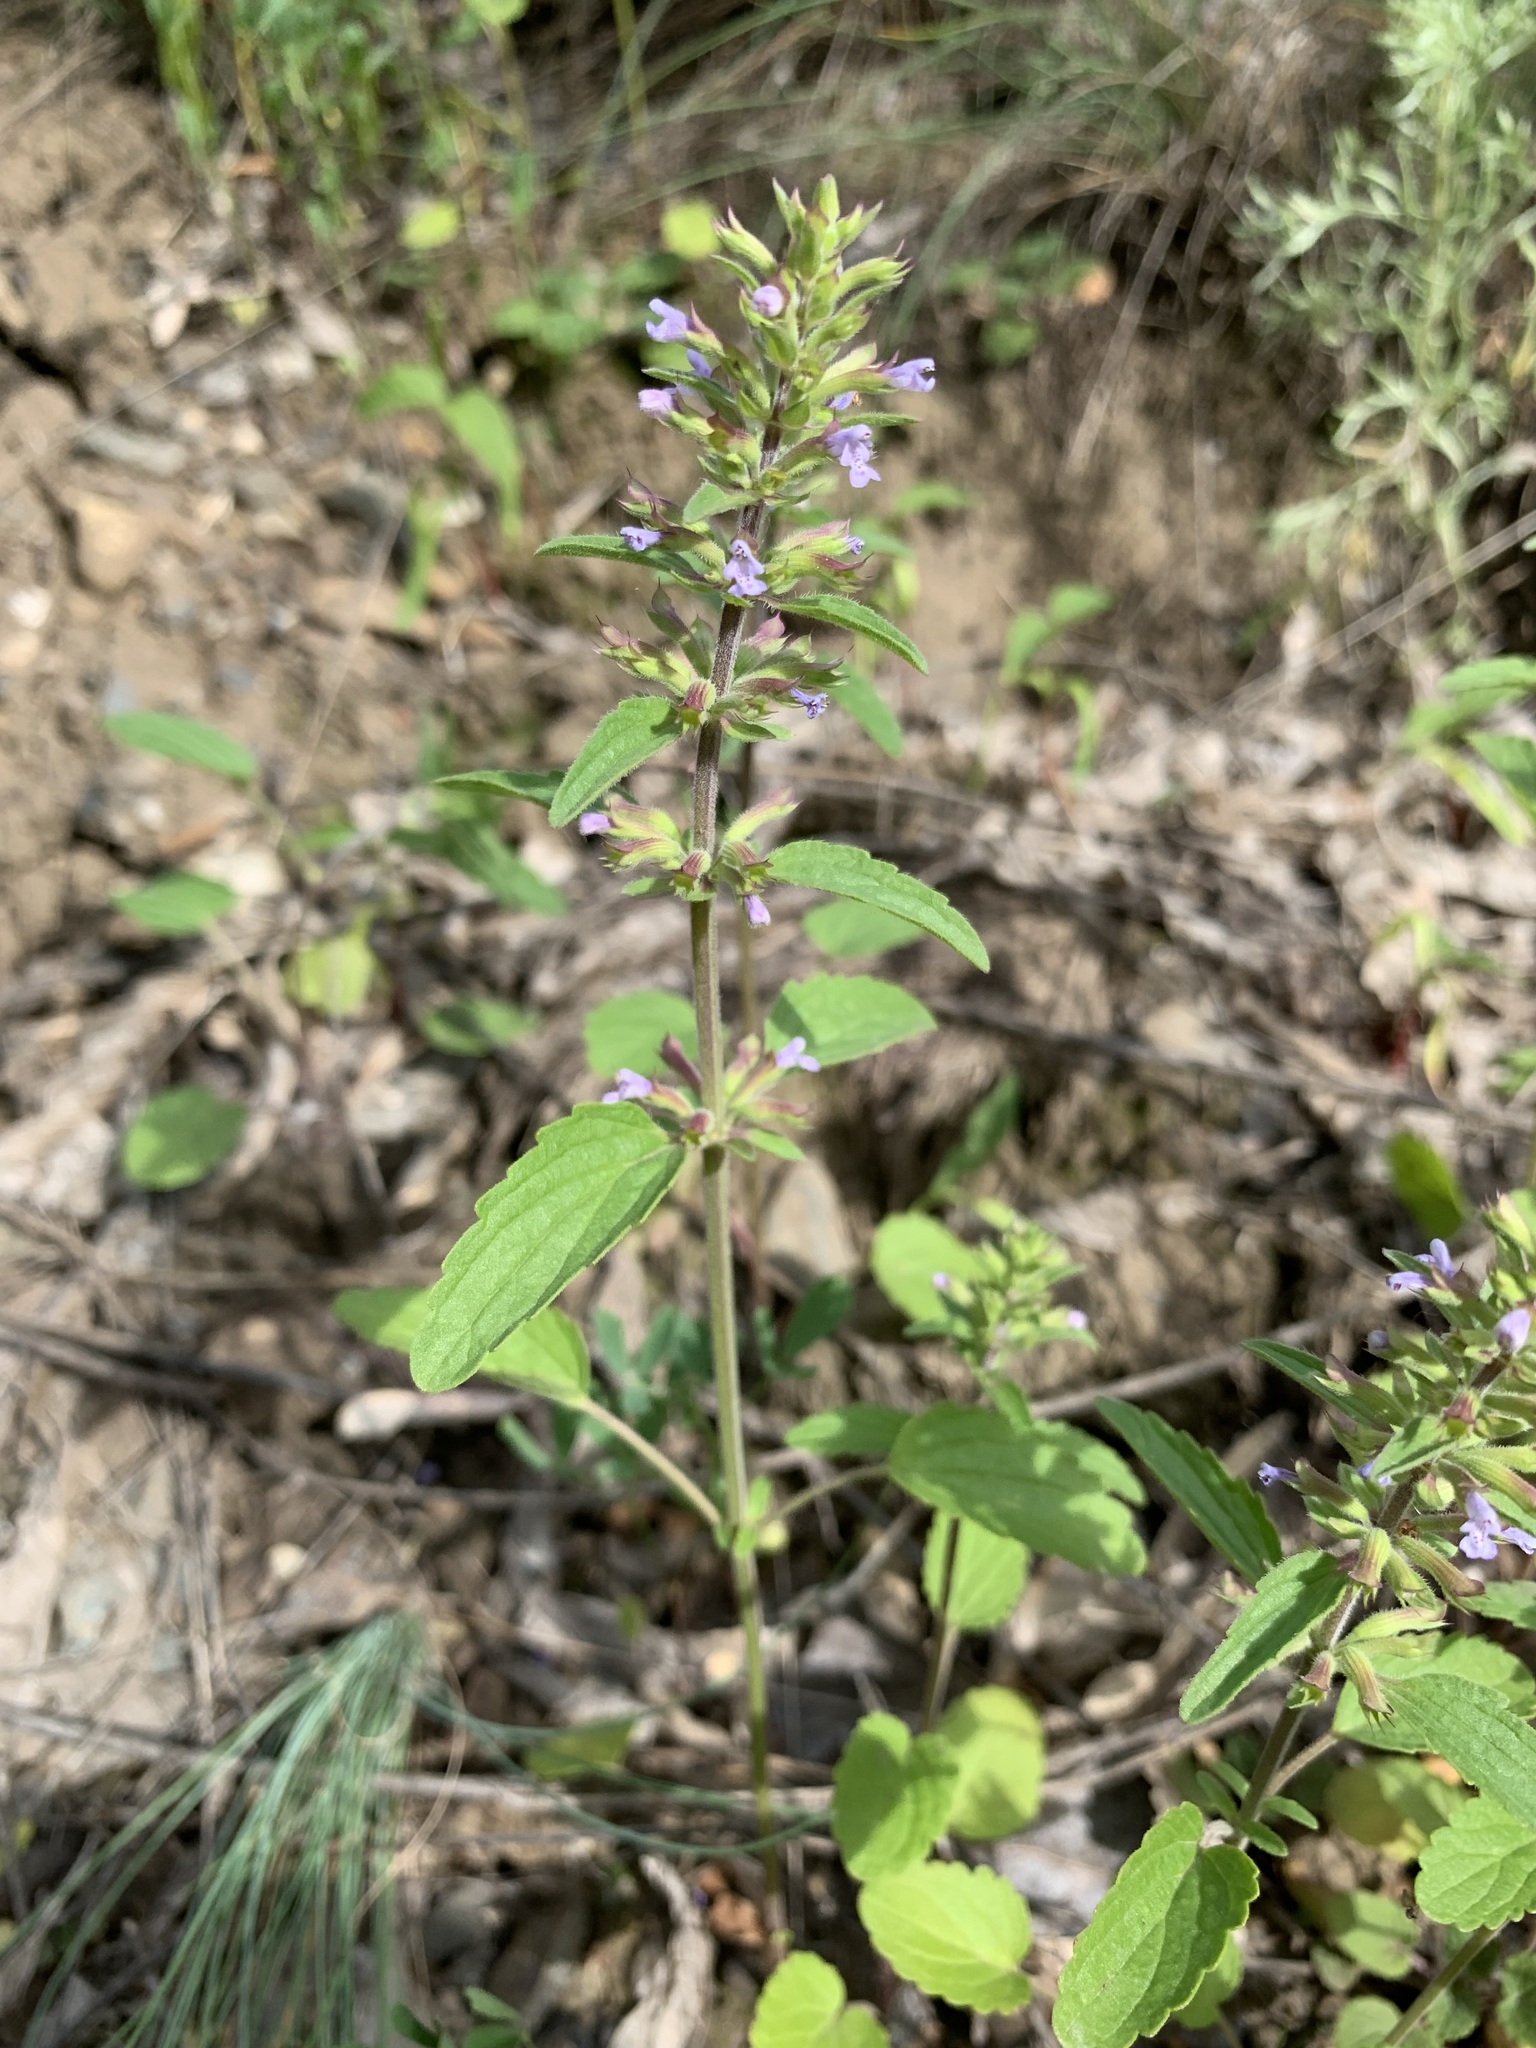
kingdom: Plantae
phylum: Tracheophyta
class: Magnoliopsida
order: Lamiales
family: Lamiaceae
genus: Dracocephalum
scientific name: Dracocephalum thymiflorum
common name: Thymeleaf dragonhead
